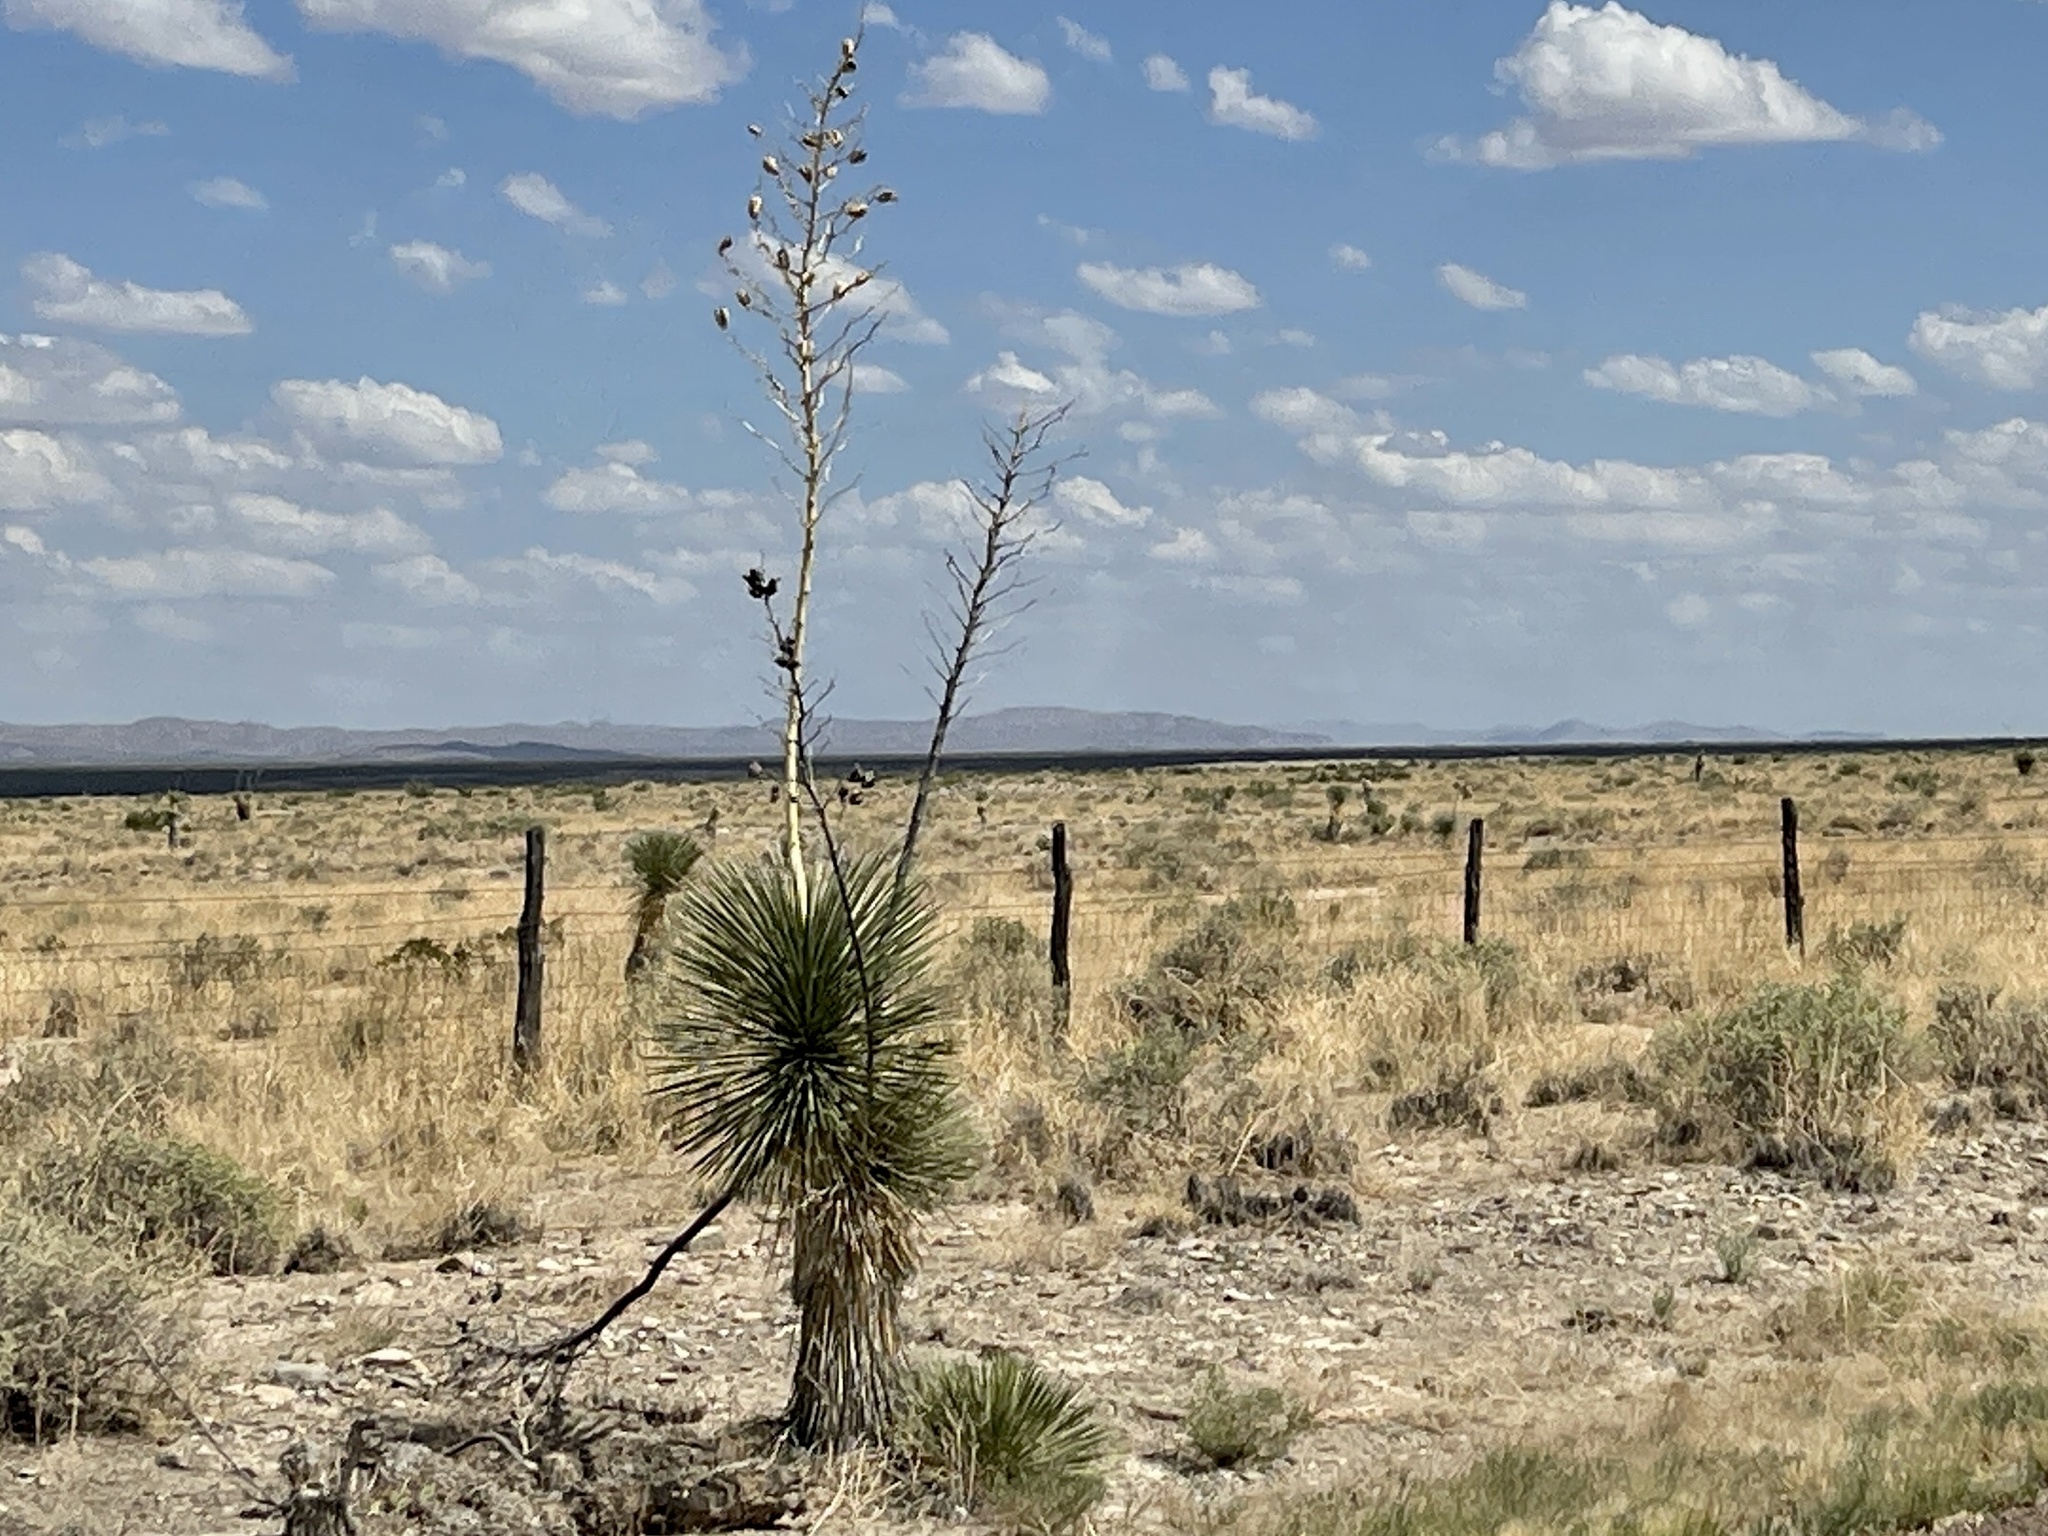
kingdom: Plantae
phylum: Tracheophyta
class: Liliopsida
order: Asparagales
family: Asparagaceae
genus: Yucca
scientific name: Yucca elata
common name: Palmella
